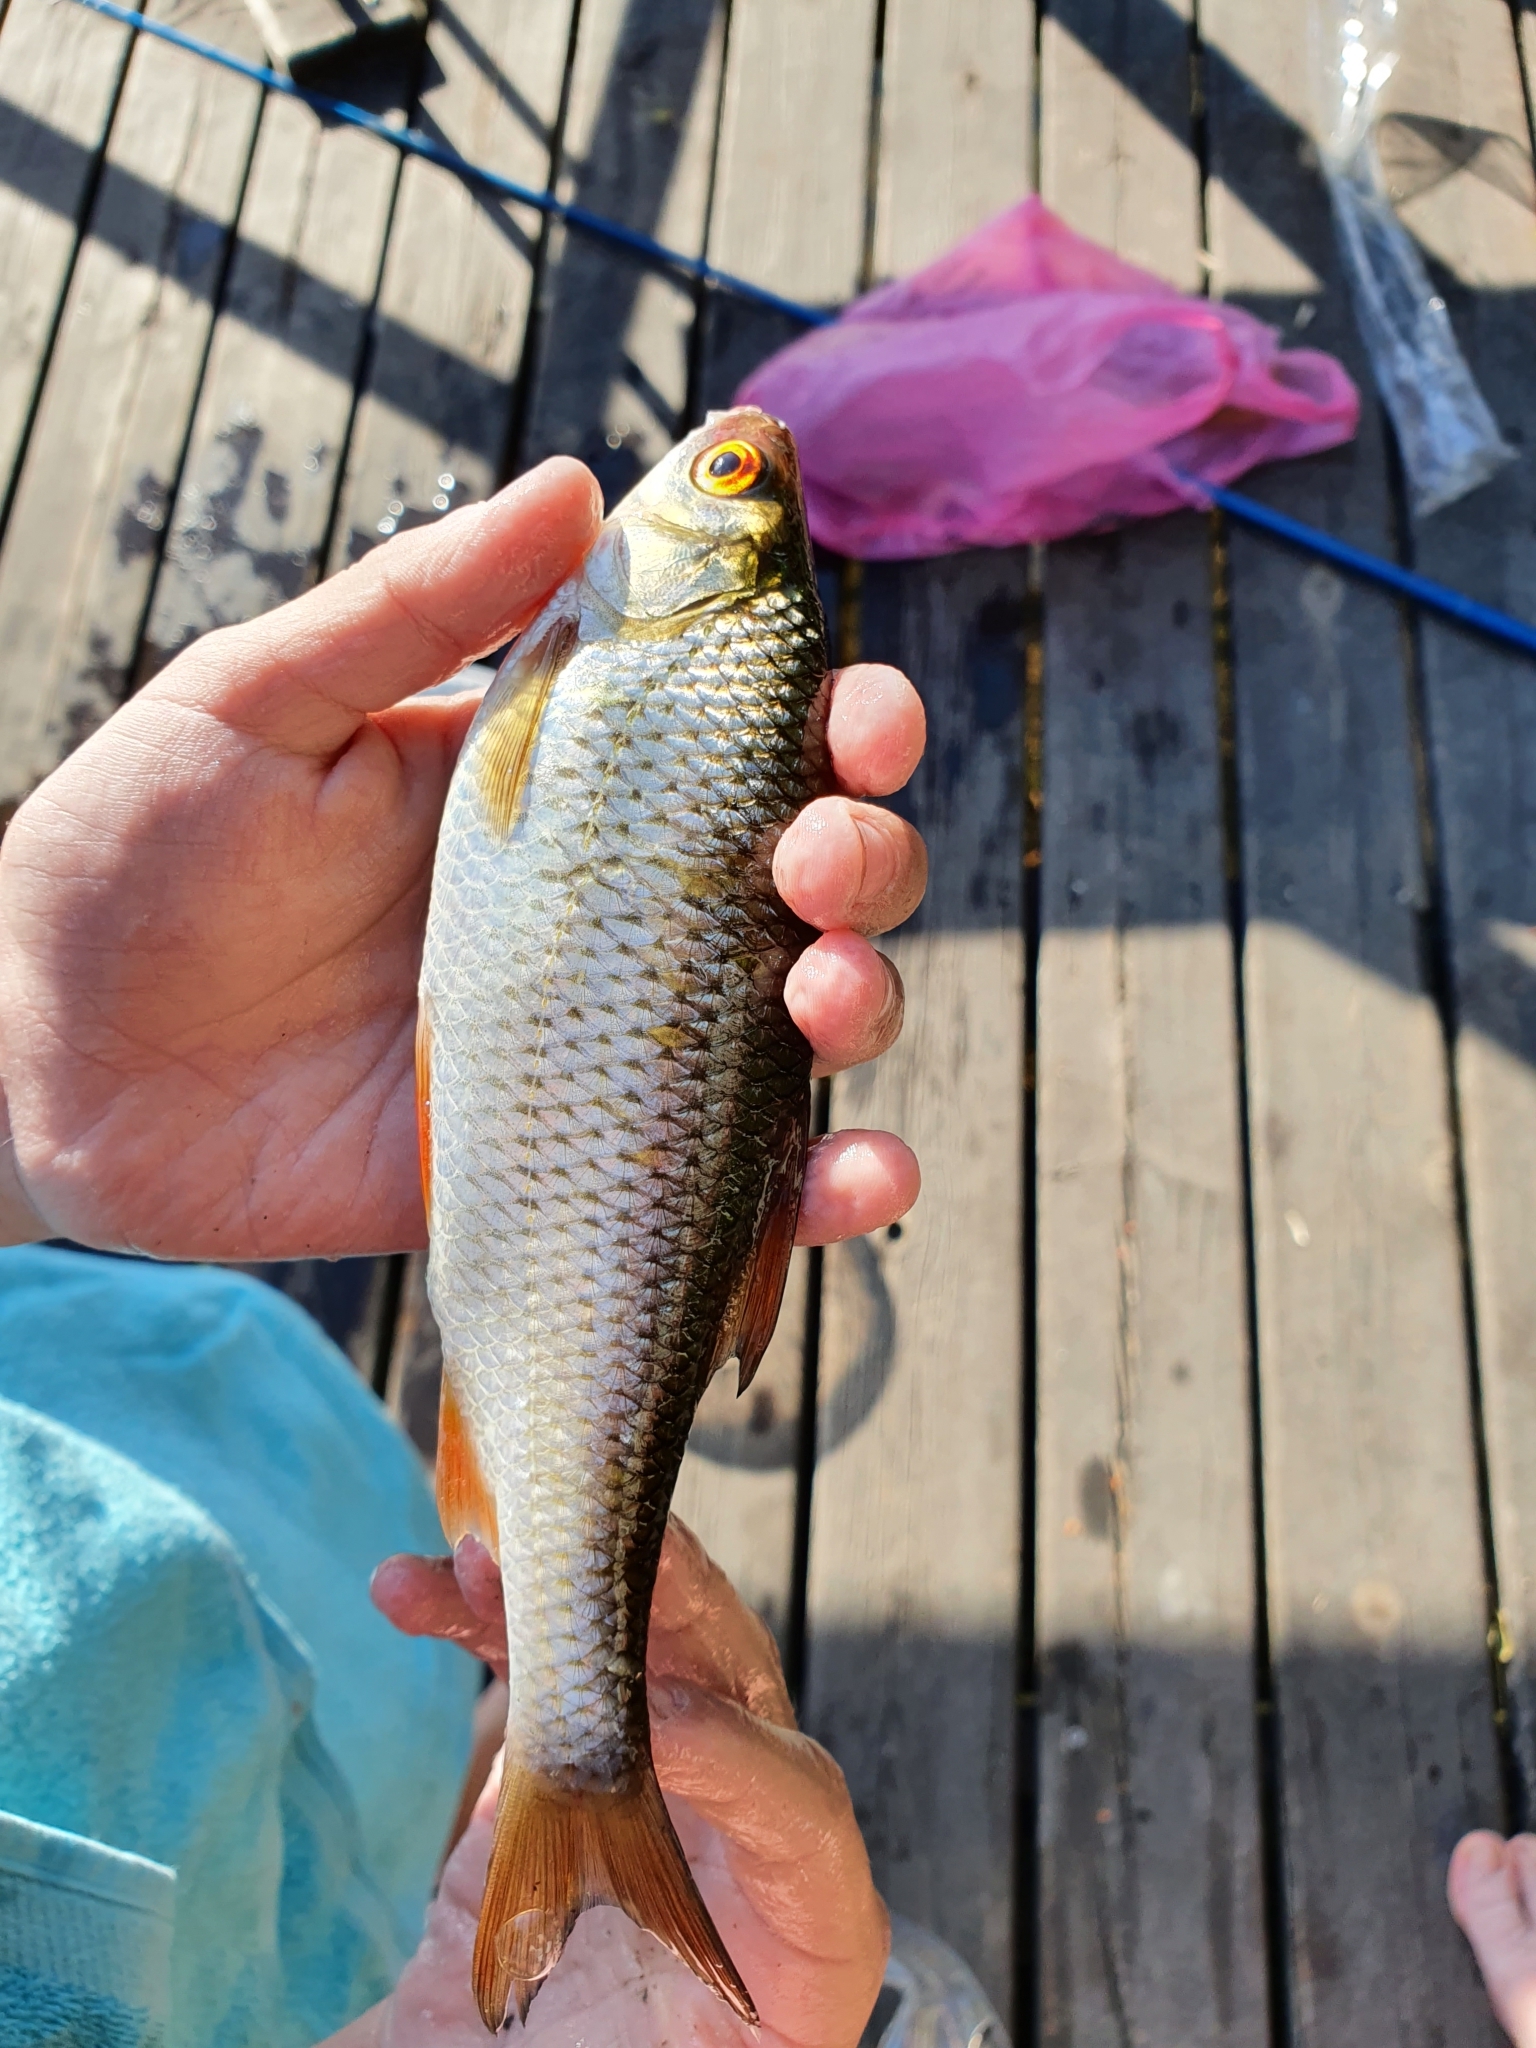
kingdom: Animalia
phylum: Chordata
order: Cypriniformes
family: Cyprinidae
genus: Rutilus
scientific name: Rutilus rutilus
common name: Roach
